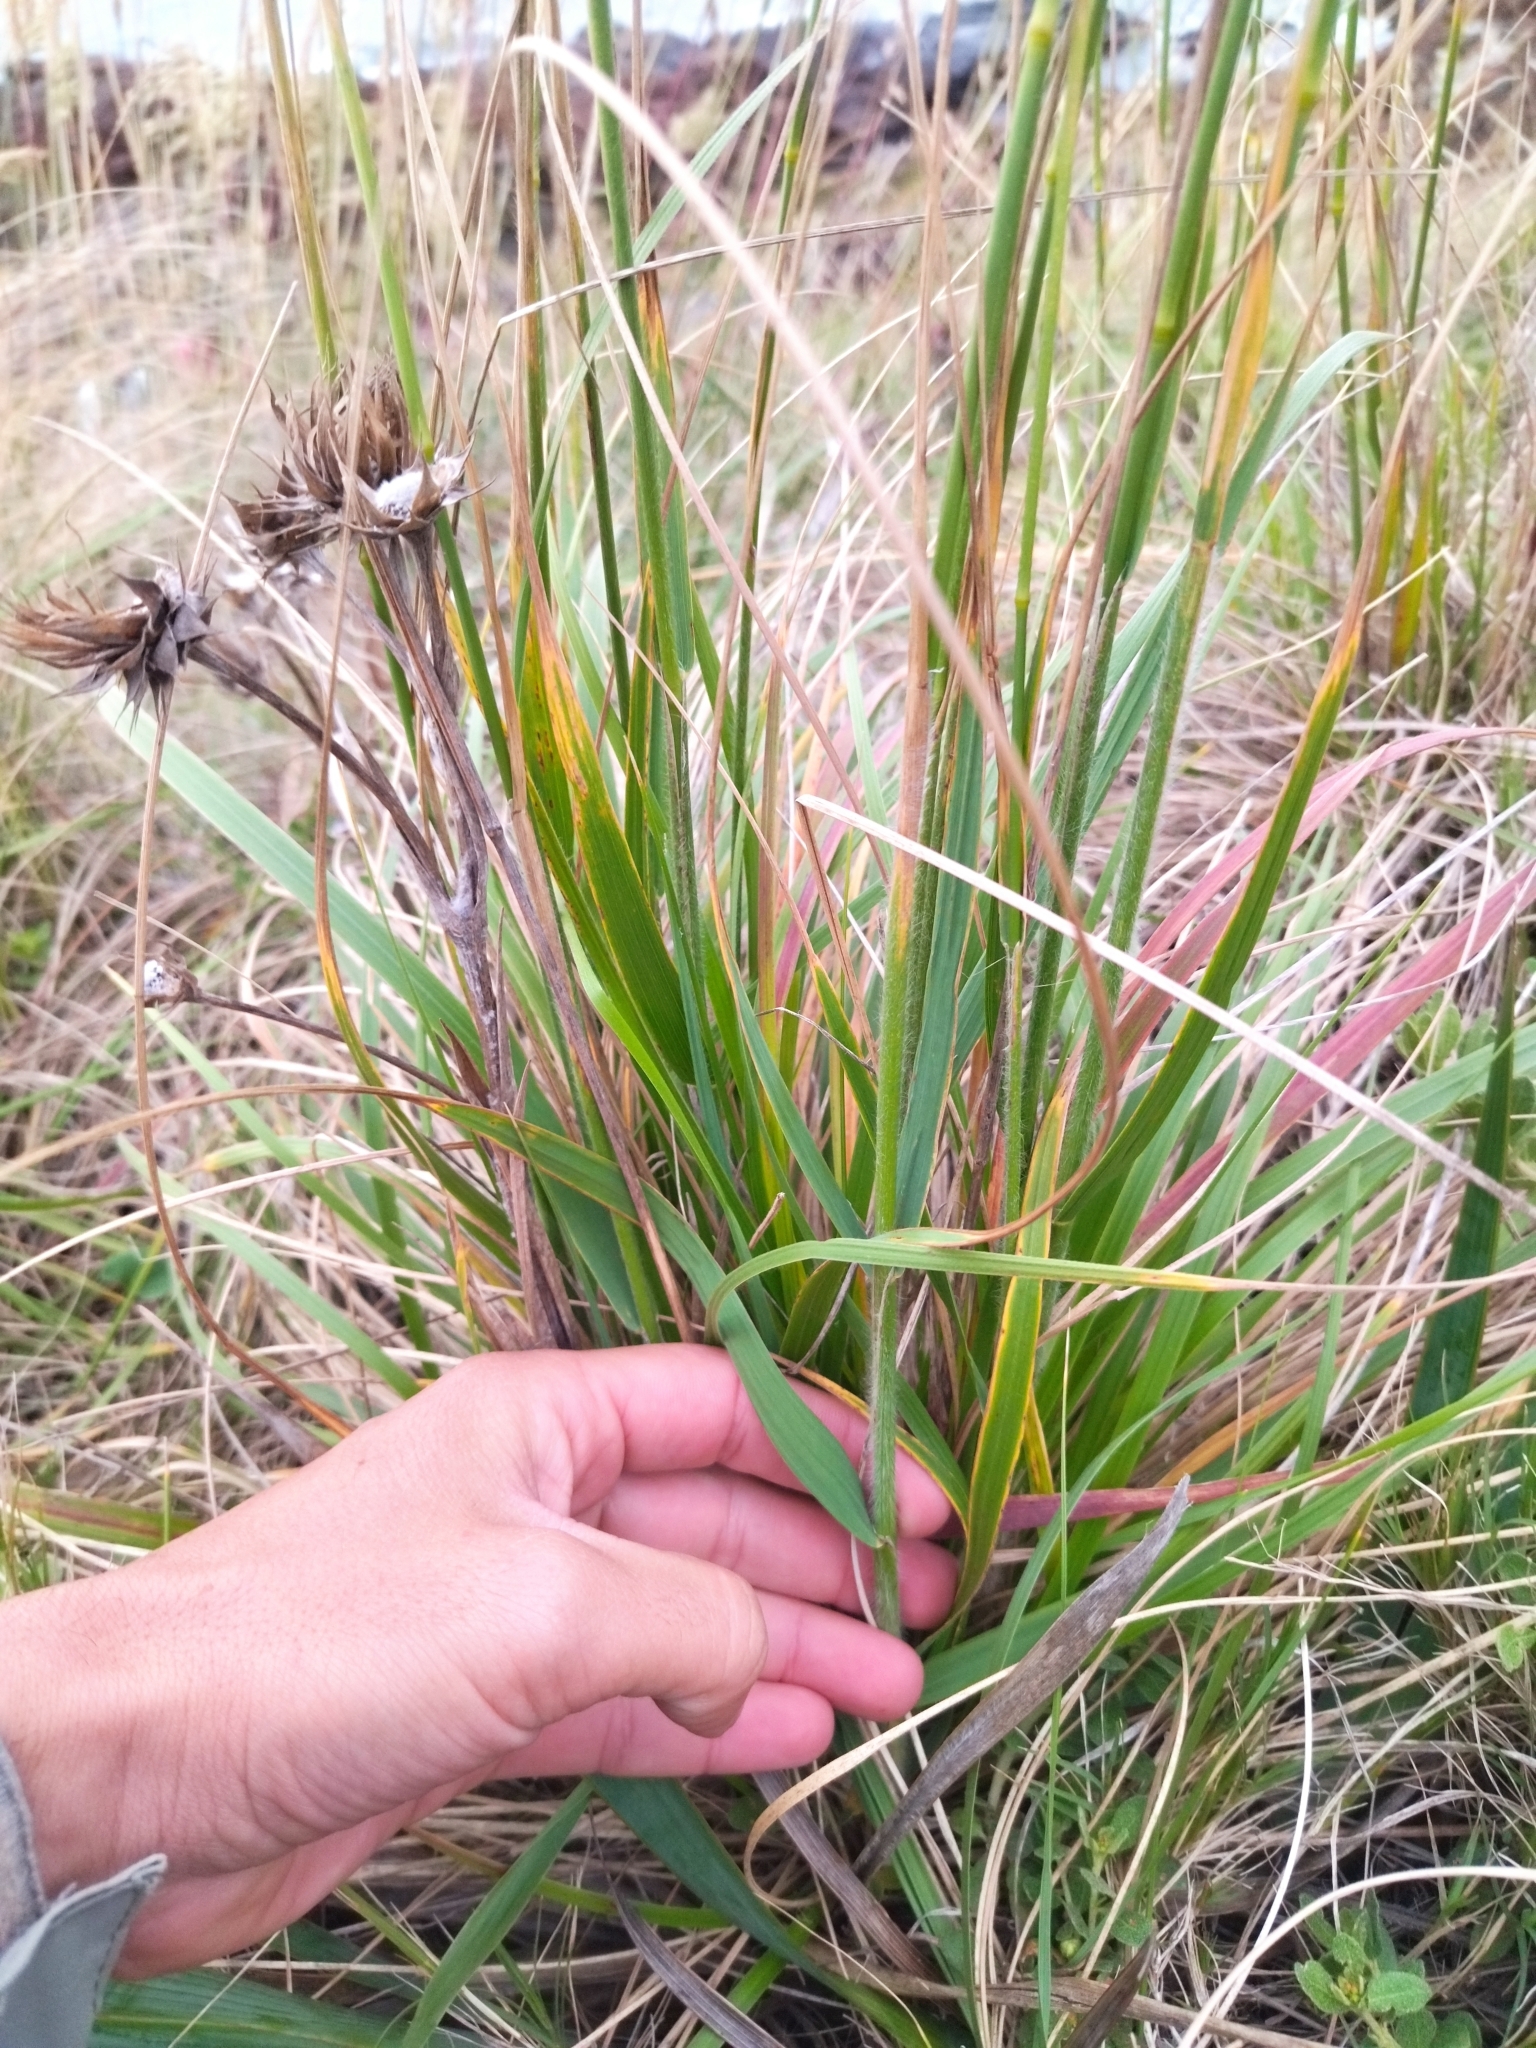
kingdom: Plantae
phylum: Tracheophyta
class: Liliopsida
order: Poales
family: Poaceae
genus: Bromus
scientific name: Bromus auleticus
